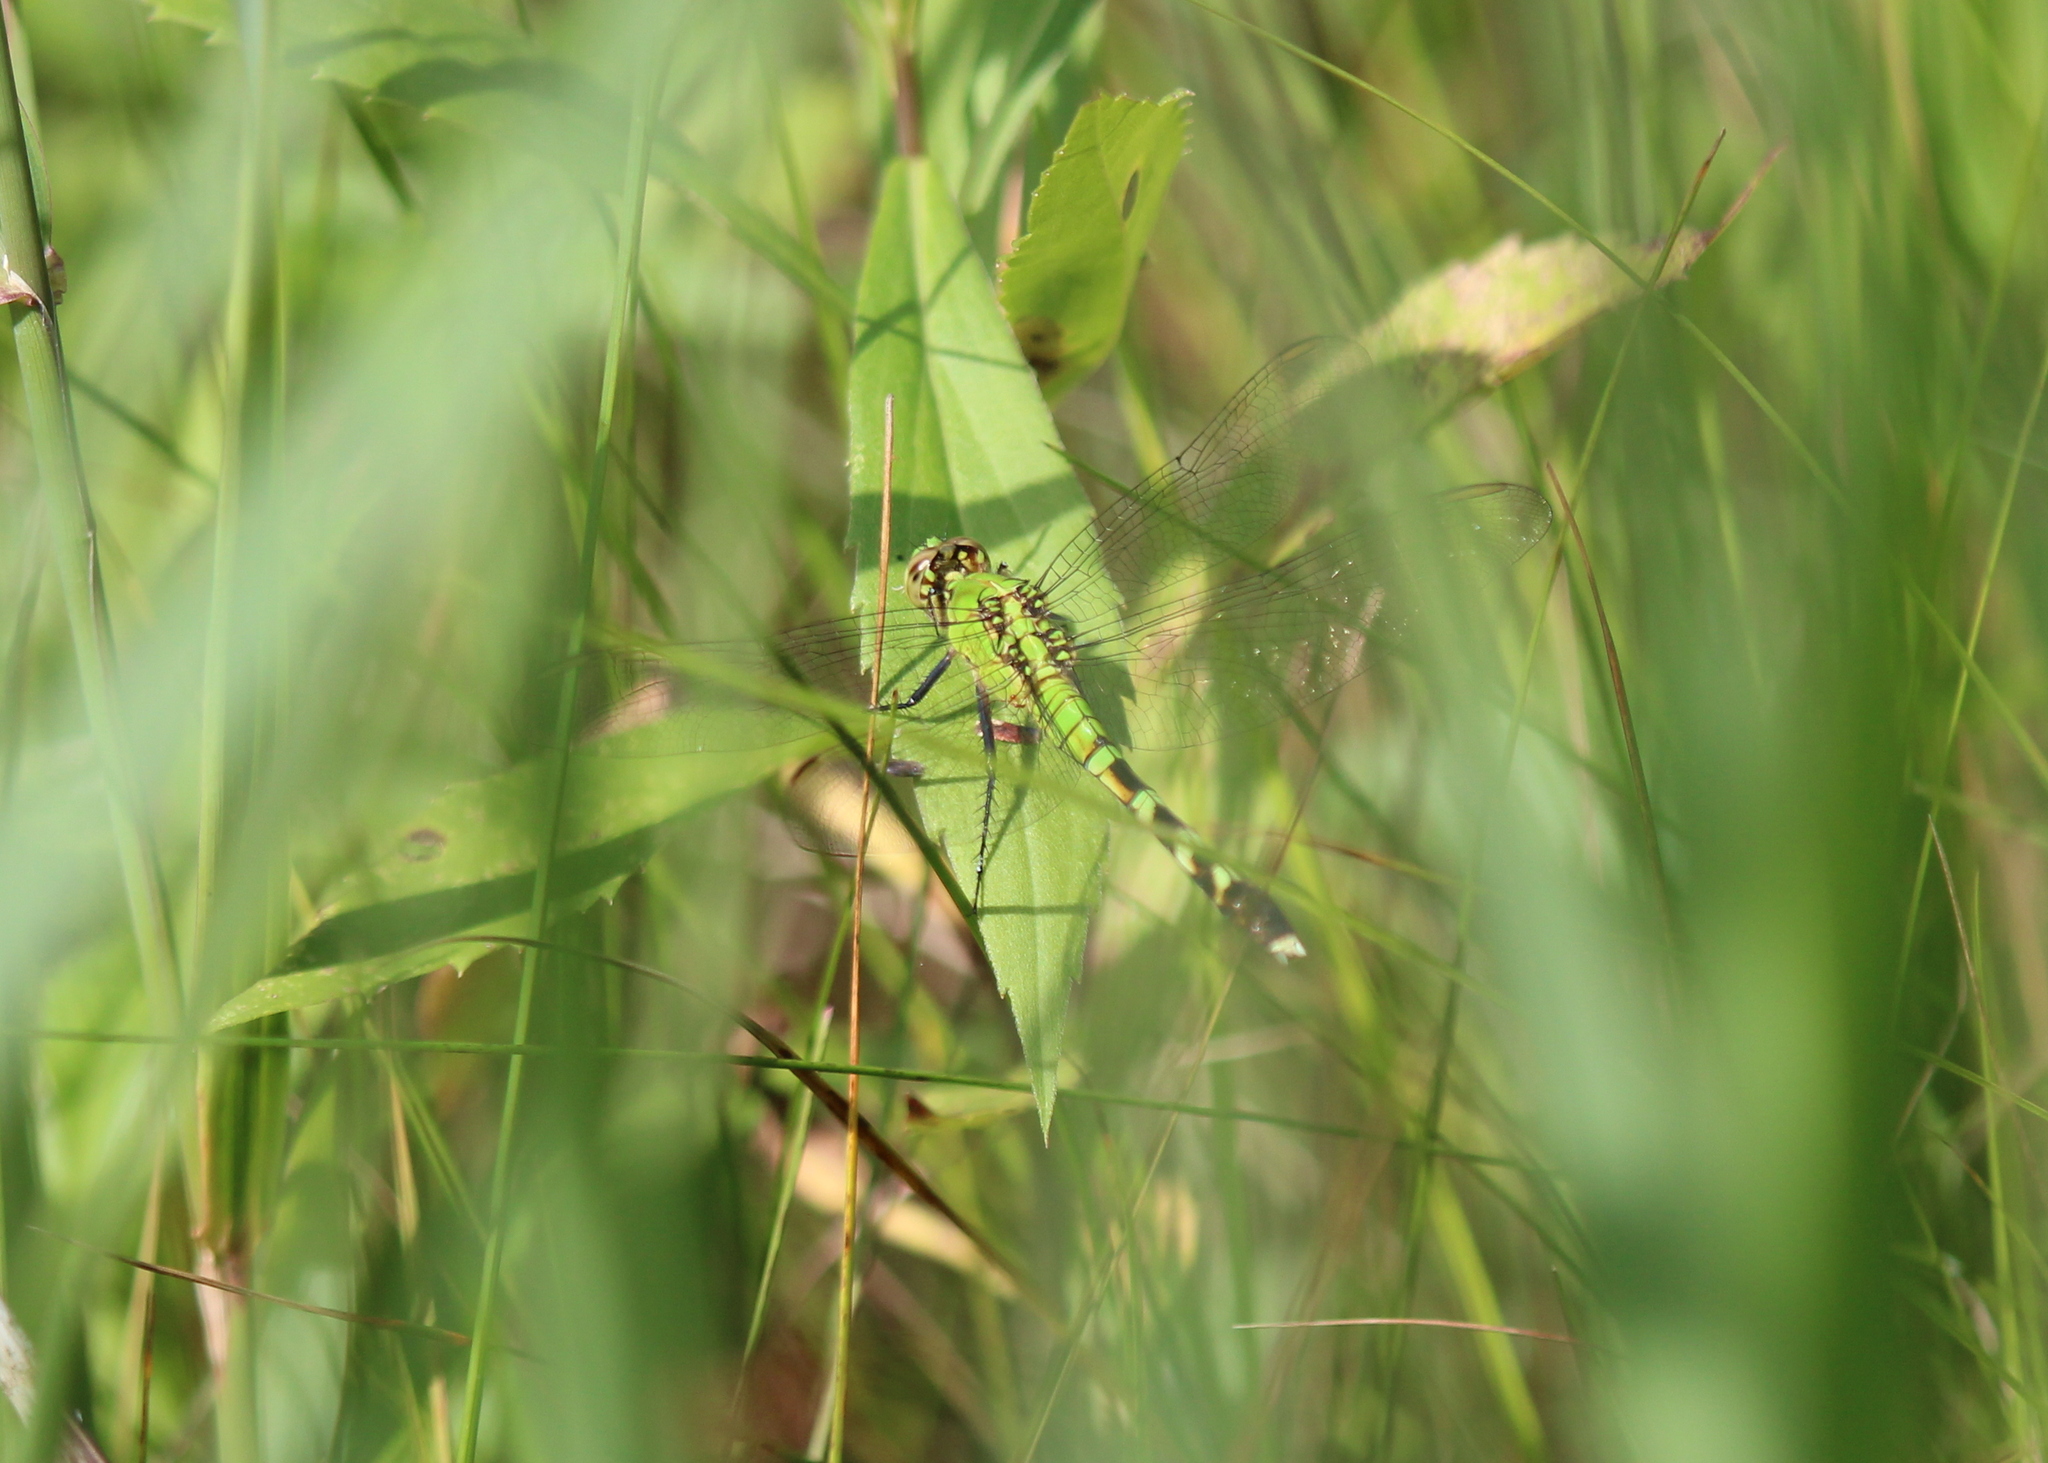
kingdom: Animalia
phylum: Arthropoda
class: Insecta
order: Odonata
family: Libellulidae
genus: Erythemis
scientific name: Erythemis simplicicollis
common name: Eastern pondhawk
